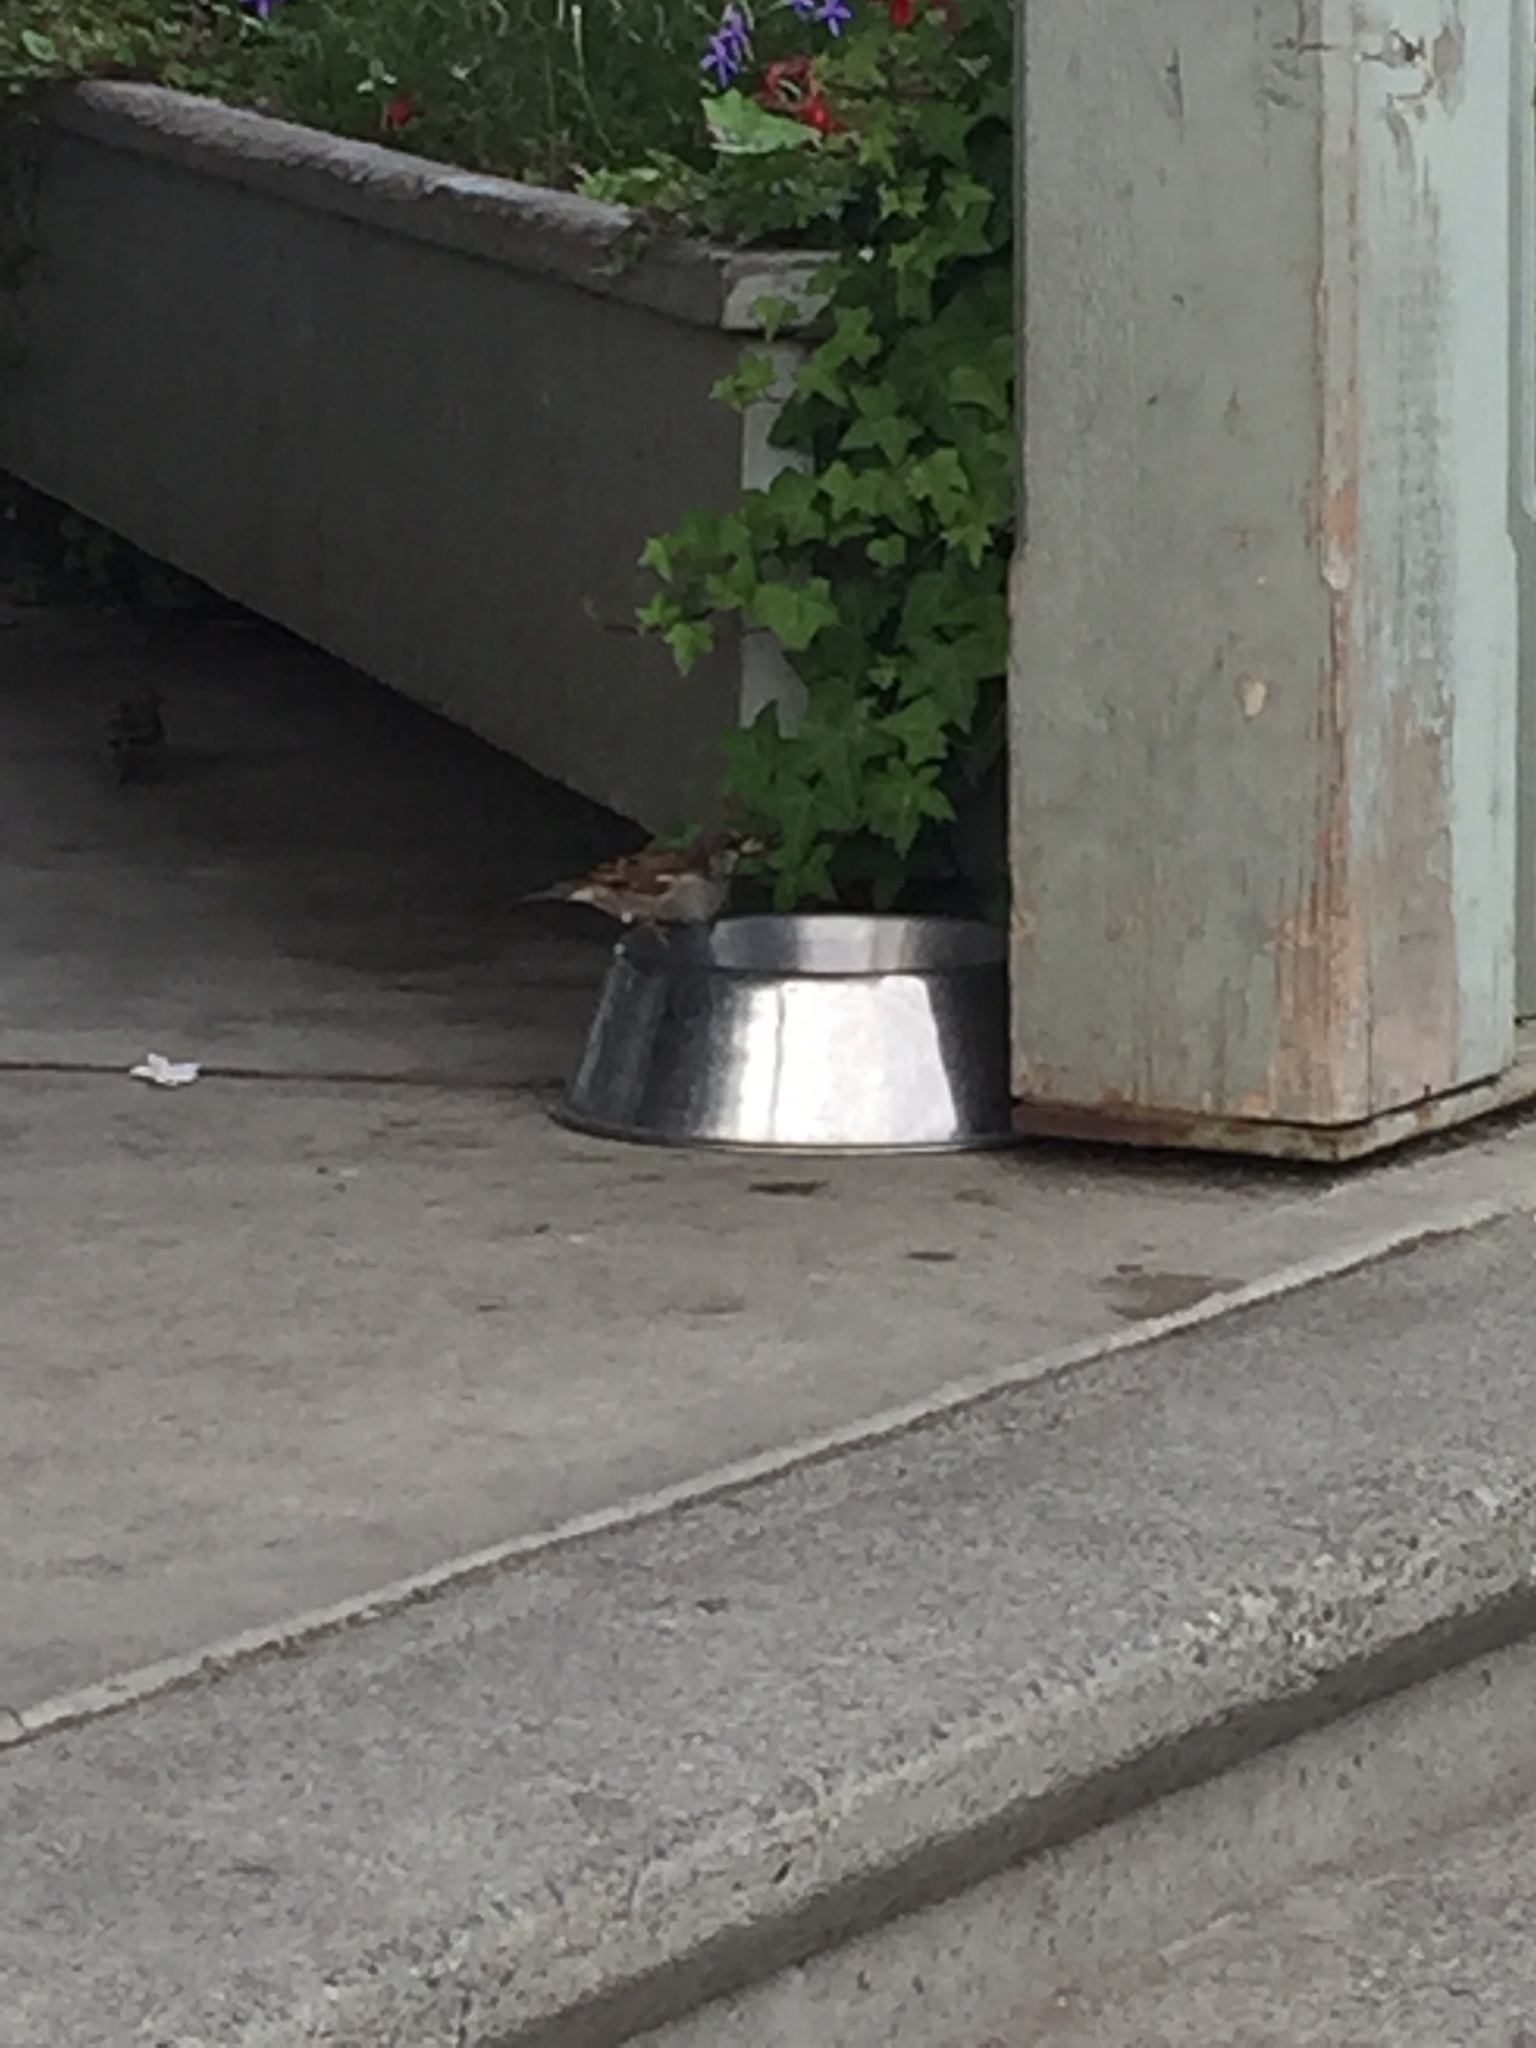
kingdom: Animalia
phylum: Chordata
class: Aves
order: Passeriformes
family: Passeridae
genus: Passer
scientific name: Passer domesticus
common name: House sparrow
